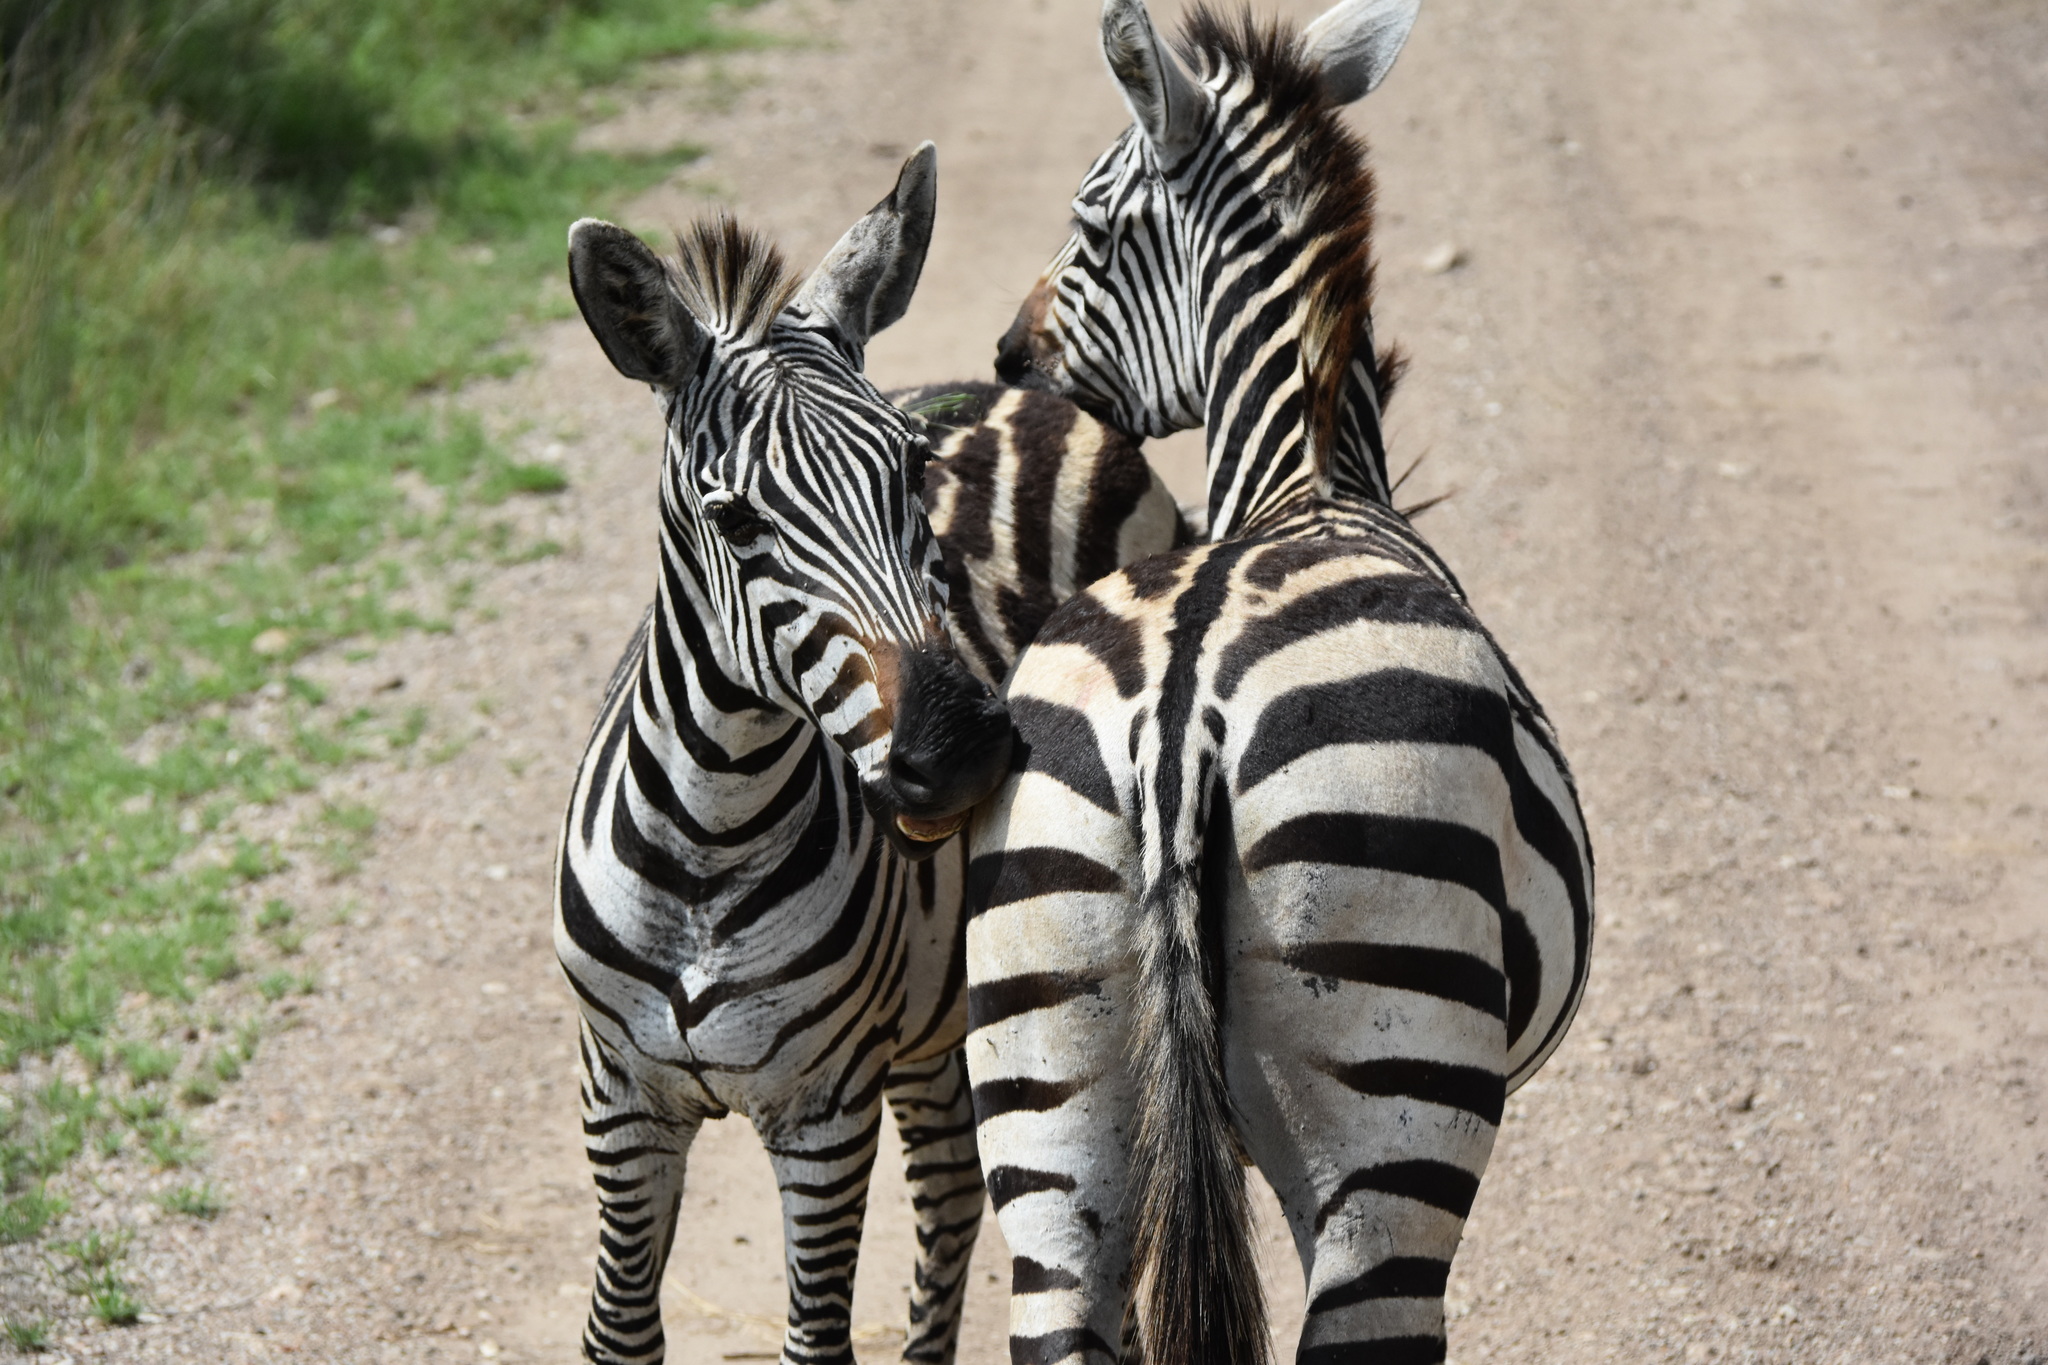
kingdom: Animalia
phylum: Chordata
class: Mammalia
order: Perissodactyla
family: Equidae
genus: Equus
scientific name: Equus quagga
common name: Plains zebra
